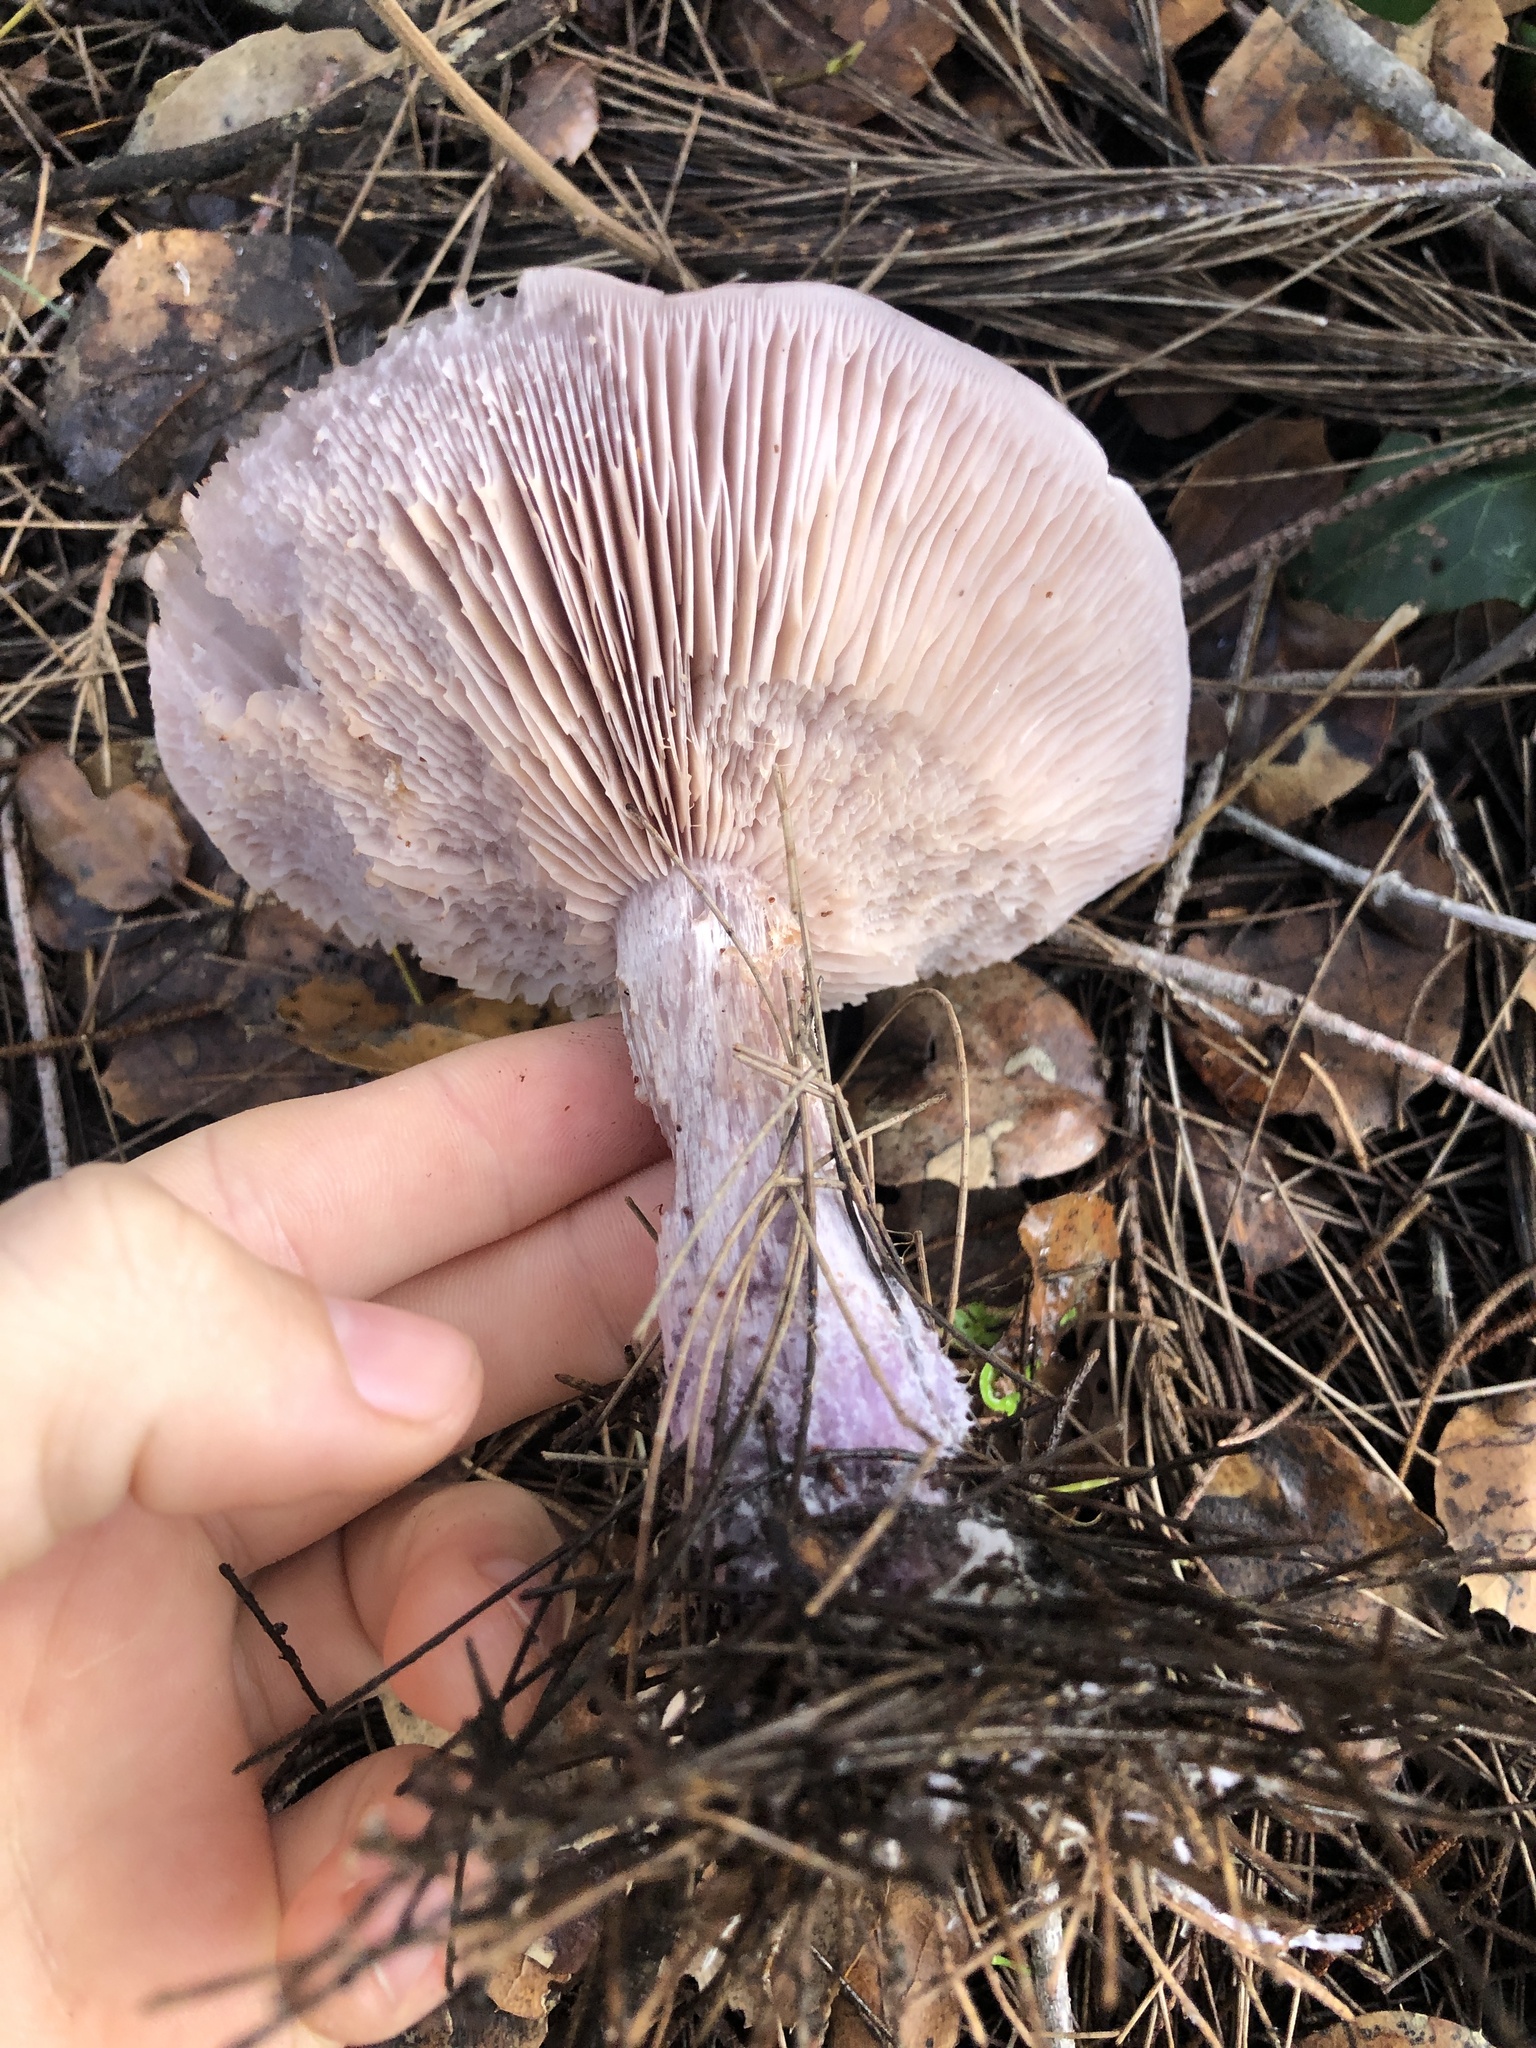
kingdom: Fungi
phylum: Basidiomycota
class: Agaricomycetes
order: Agaricales
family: Tricholomataceae
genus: Collybia
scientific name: Collybia
